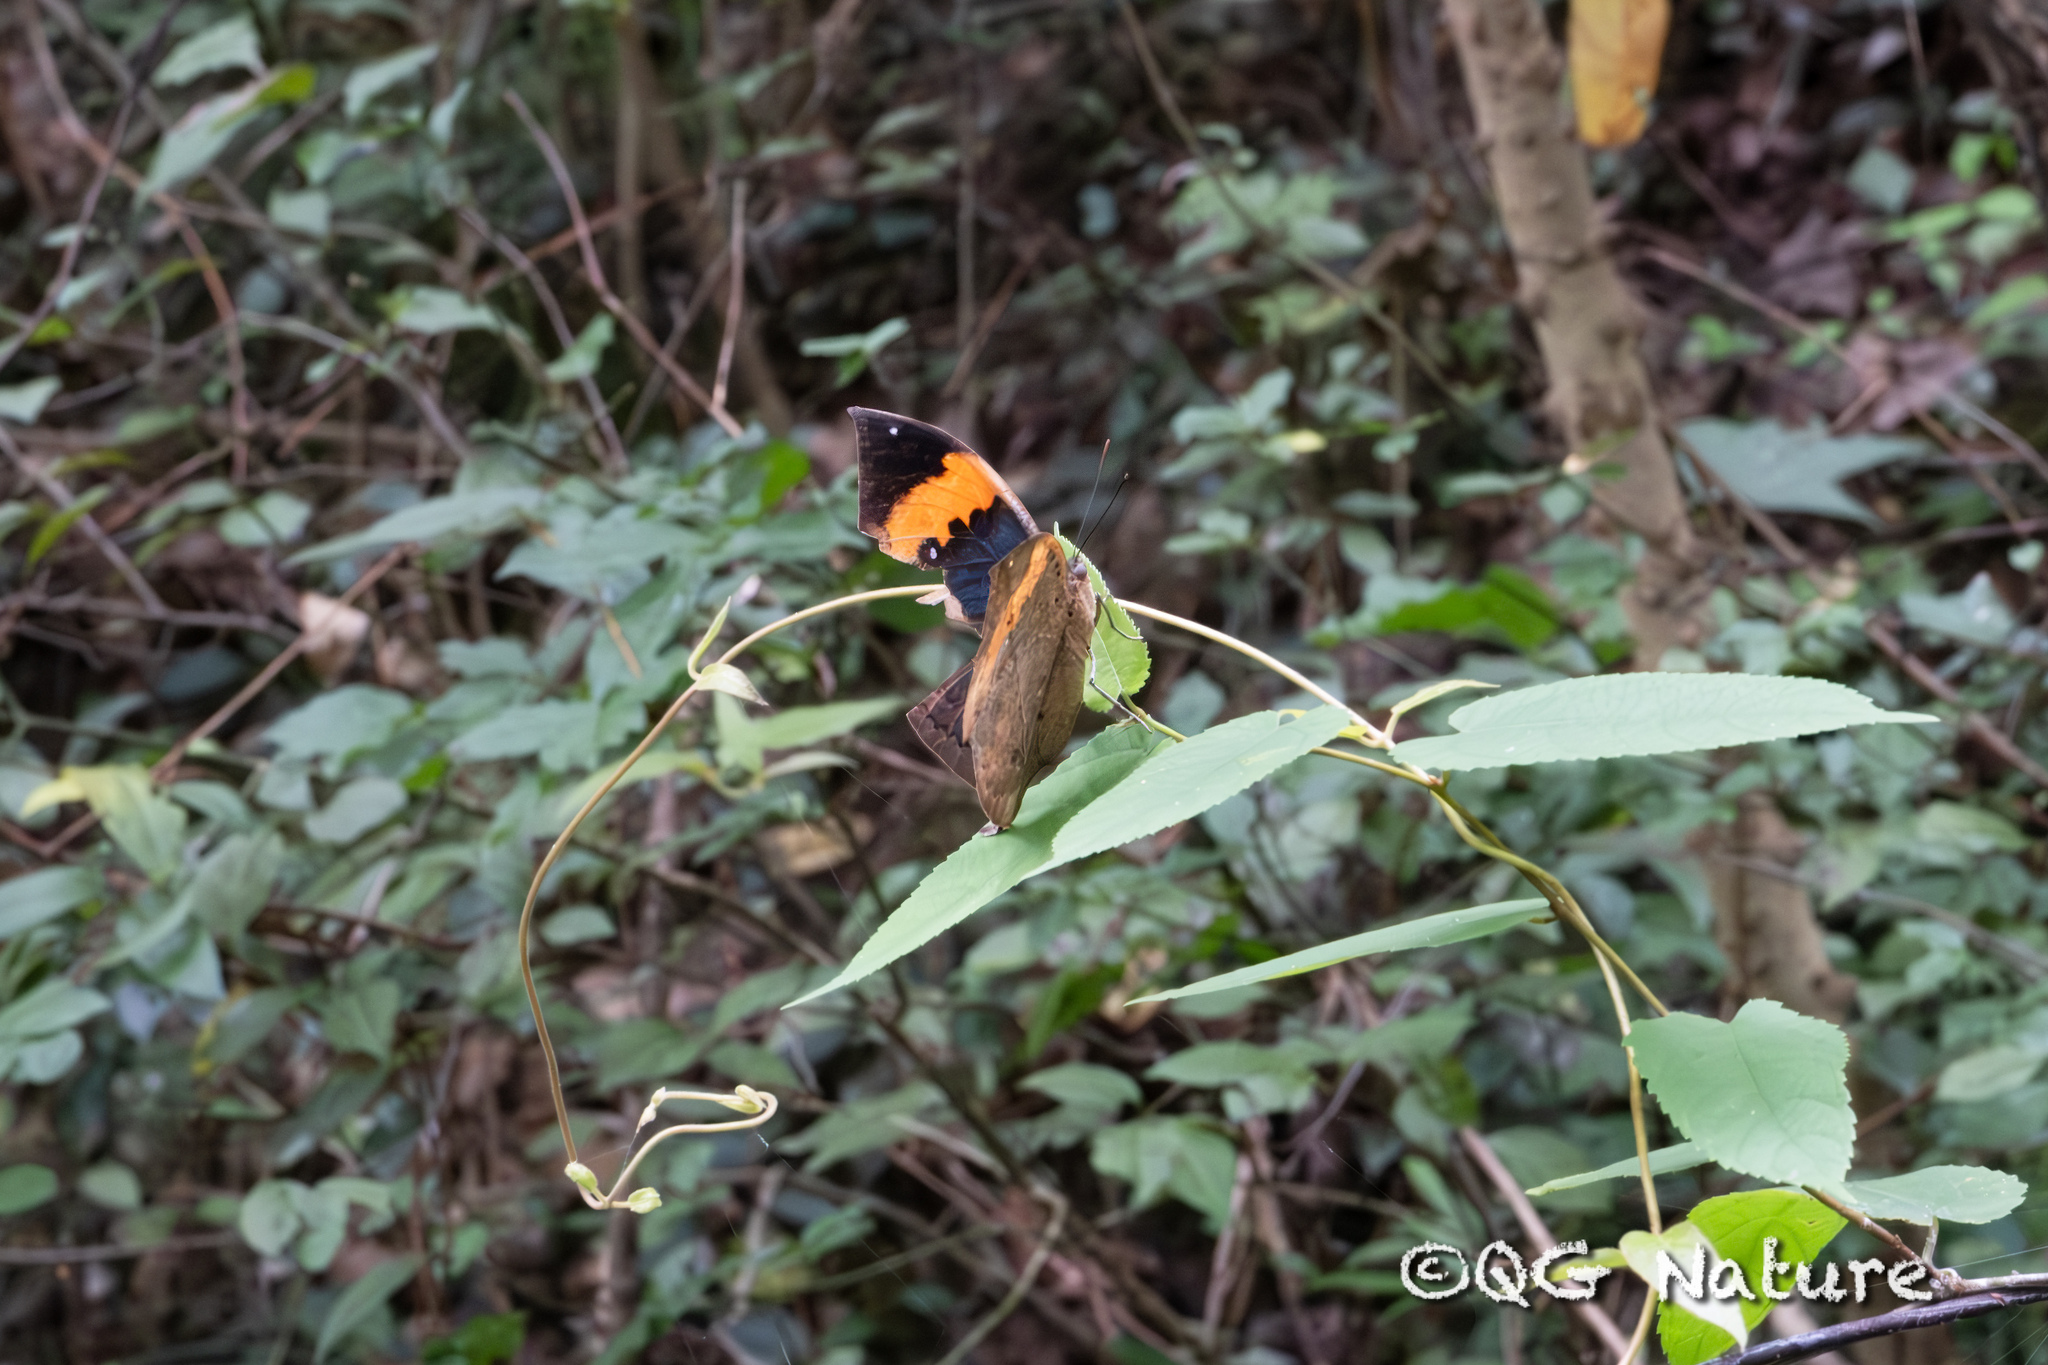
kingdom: Animalia
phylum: Arthropoda
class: Insecta
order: Lepidoptera
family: Nymphalidae
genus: Kallima
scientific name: Kallima inachus
